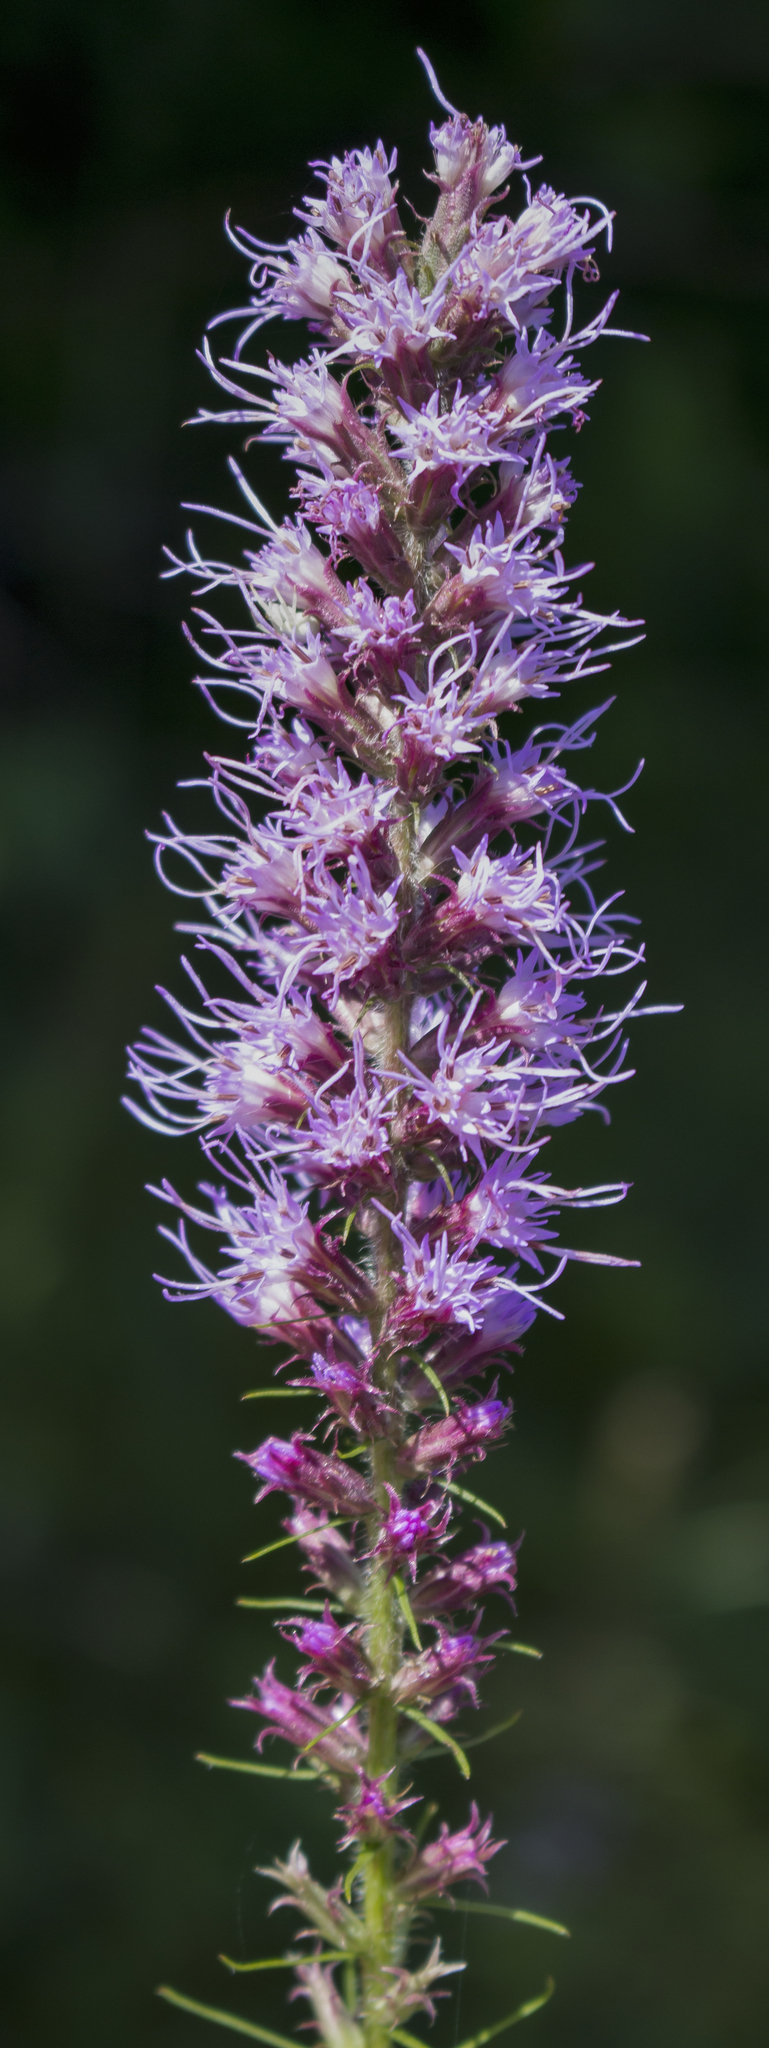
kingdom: Plantae
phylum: Tracheophyta
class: Magnoliopsida
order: Asterales
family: Asteraceae
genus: Liatris
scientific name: Liatris pycnostachya
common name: Cattail gayfeather
